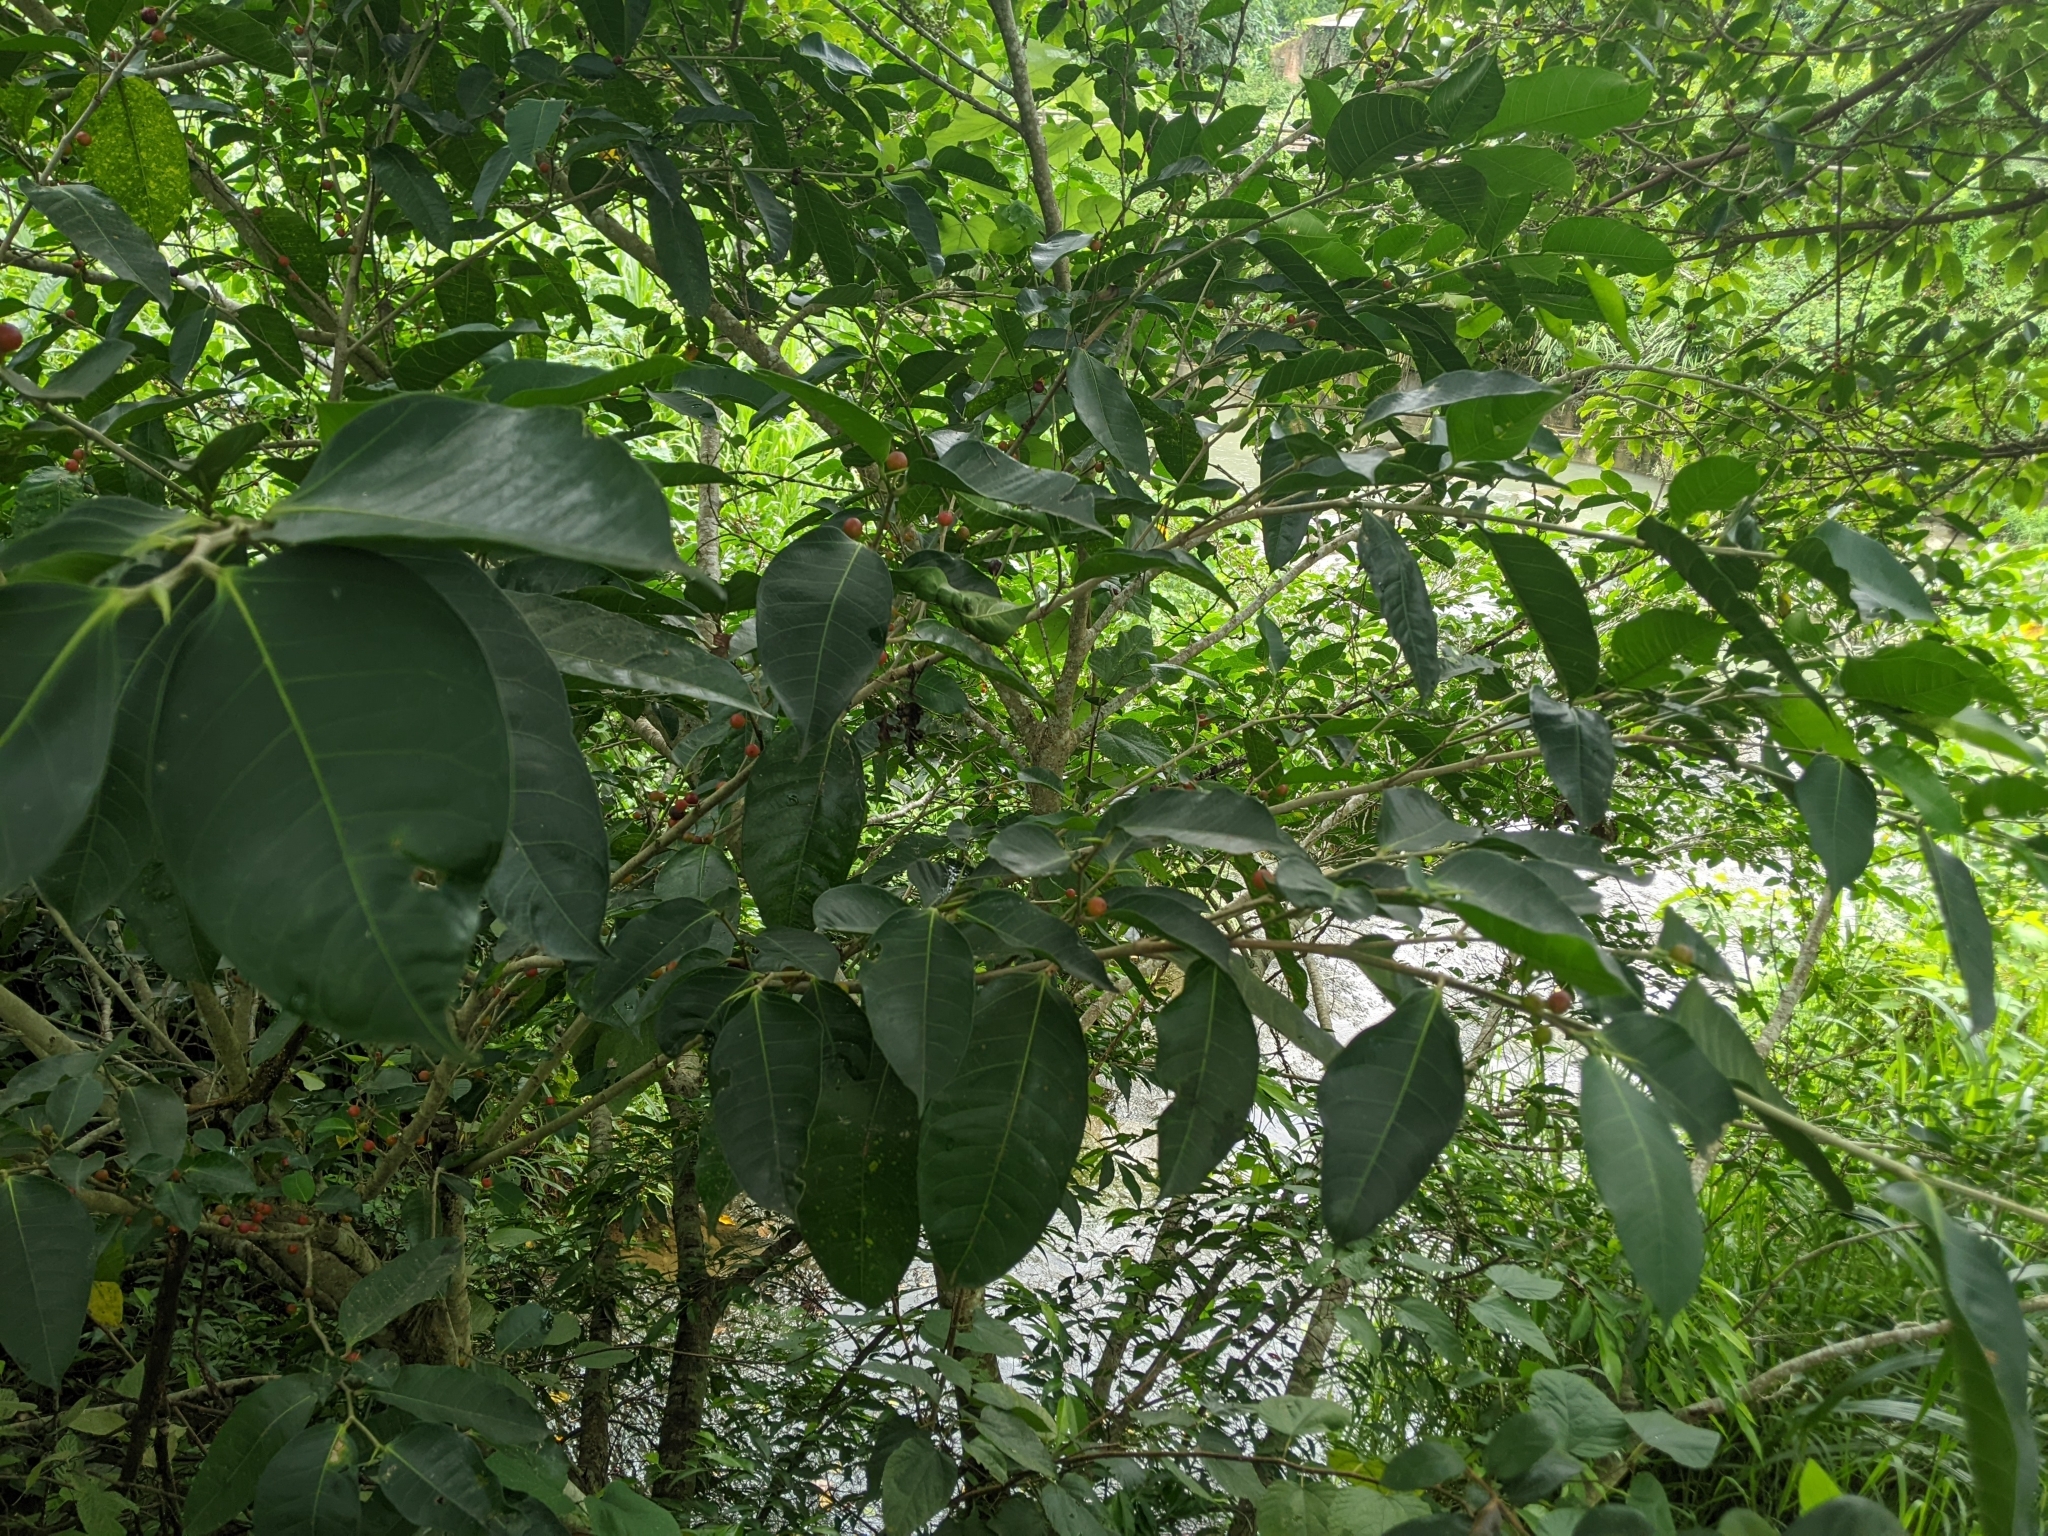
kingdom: Plantae
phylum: Tracheophyta
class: Magnoliopsida
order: Rosales
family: Moraceae
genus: Ficus
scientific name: Ficus virgata
